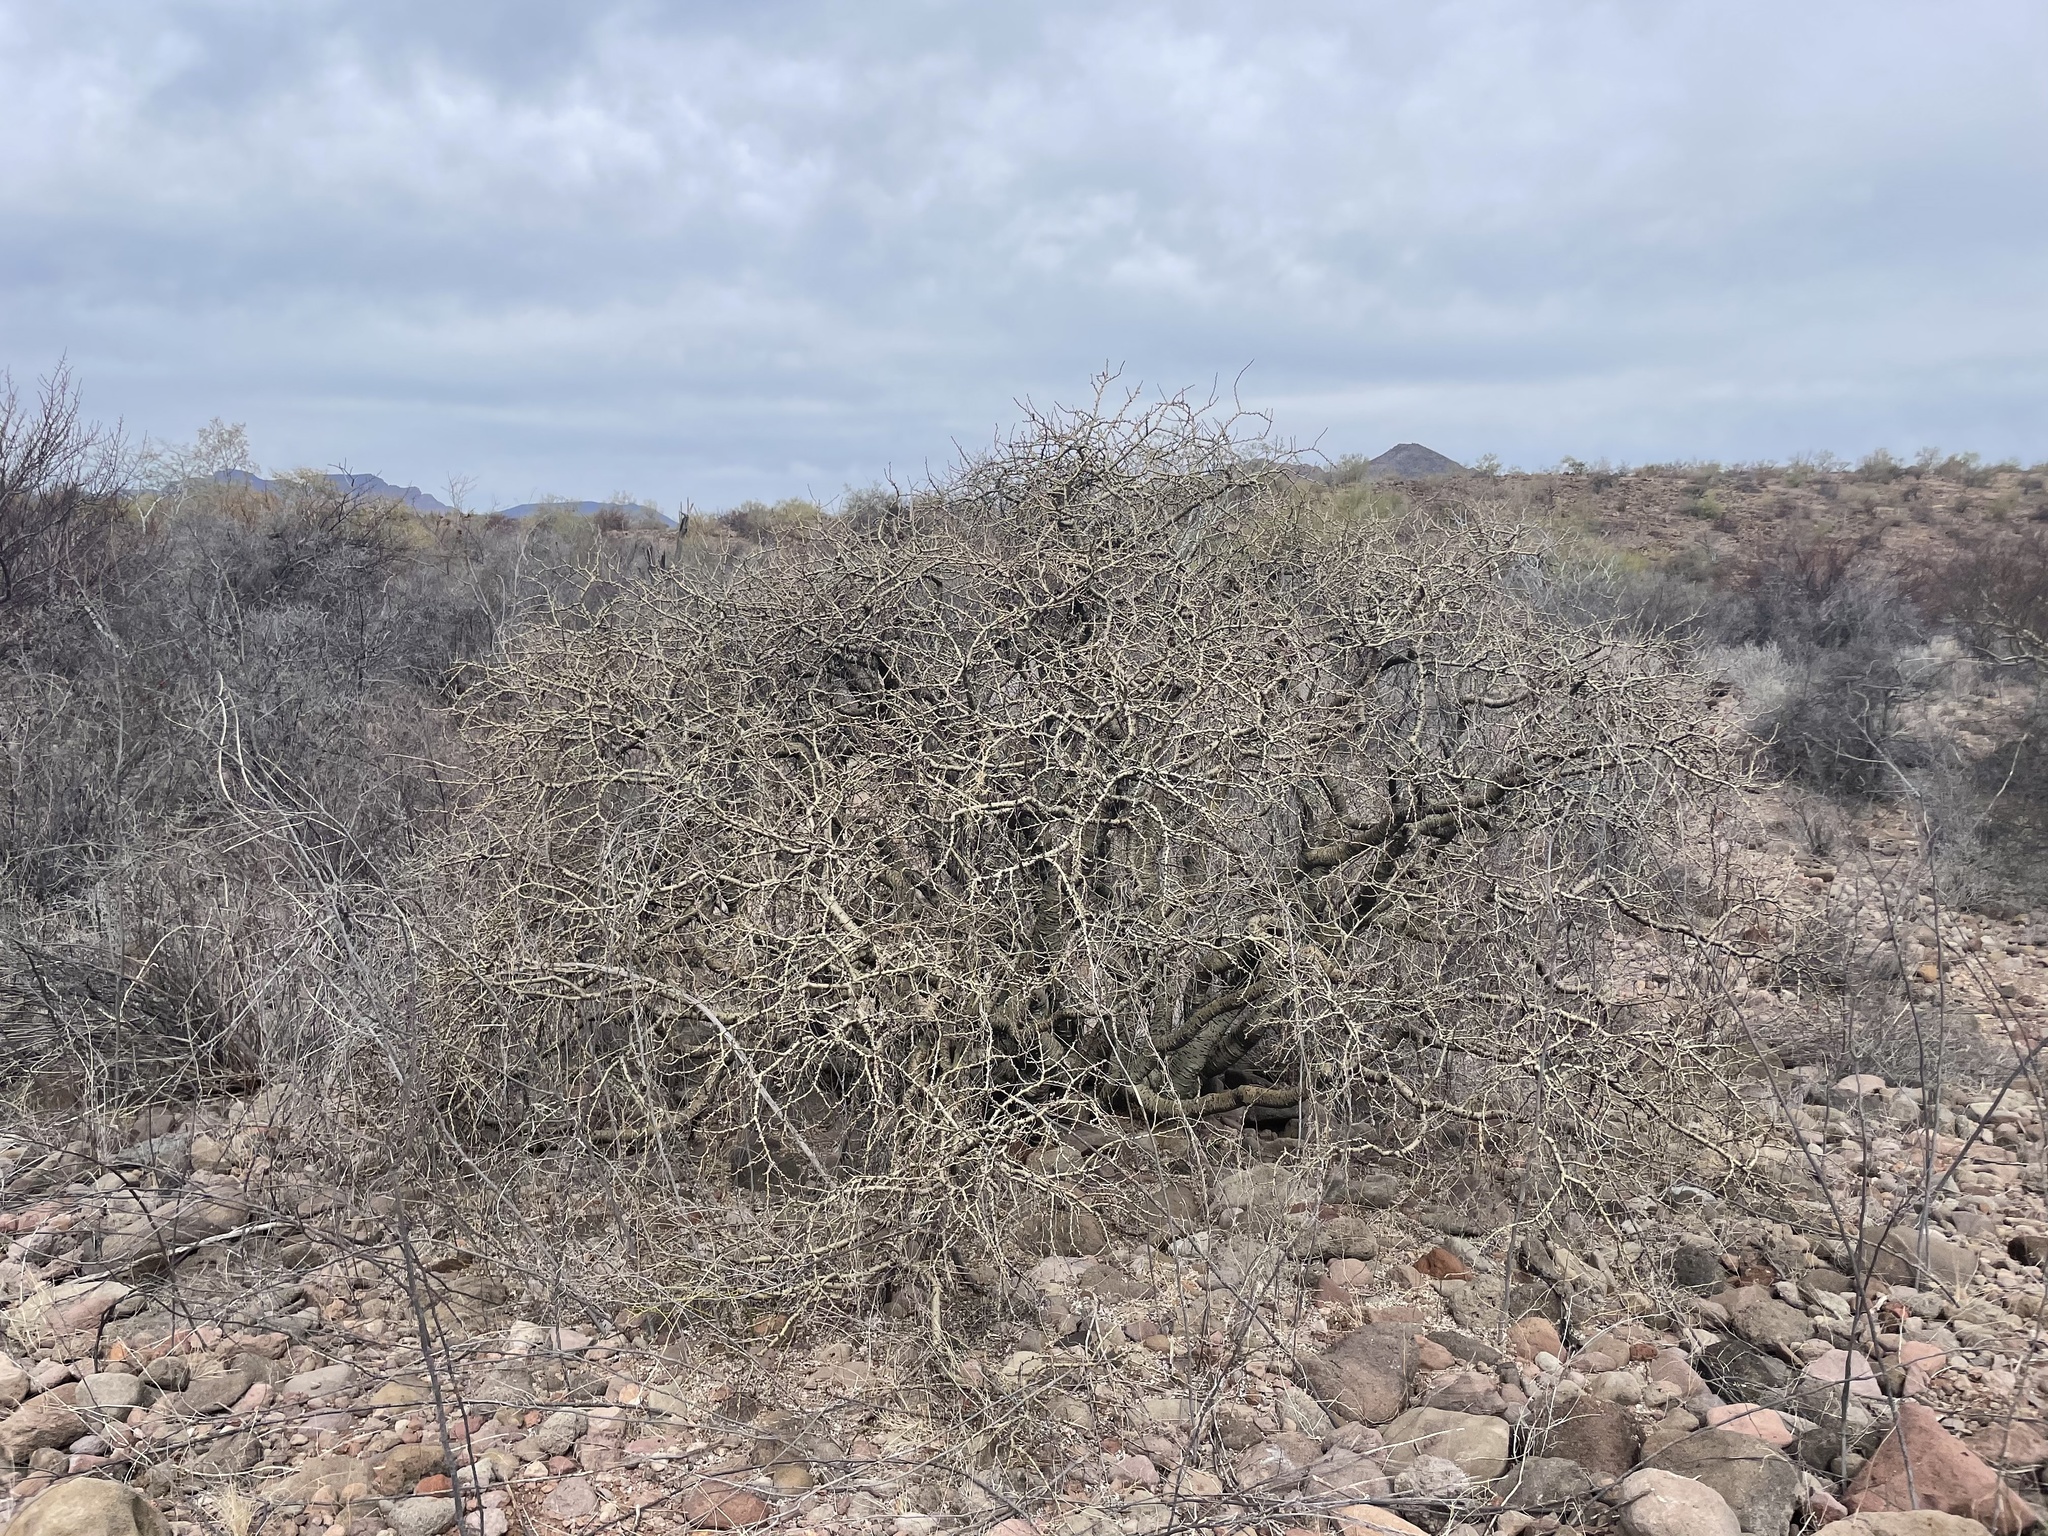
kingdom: Plantae
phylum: Tracheophyta
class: Magnoliopsida
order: Malpighiales
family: Euphorbiaceae
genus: Jatropha
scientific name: Jatropha cuneata
